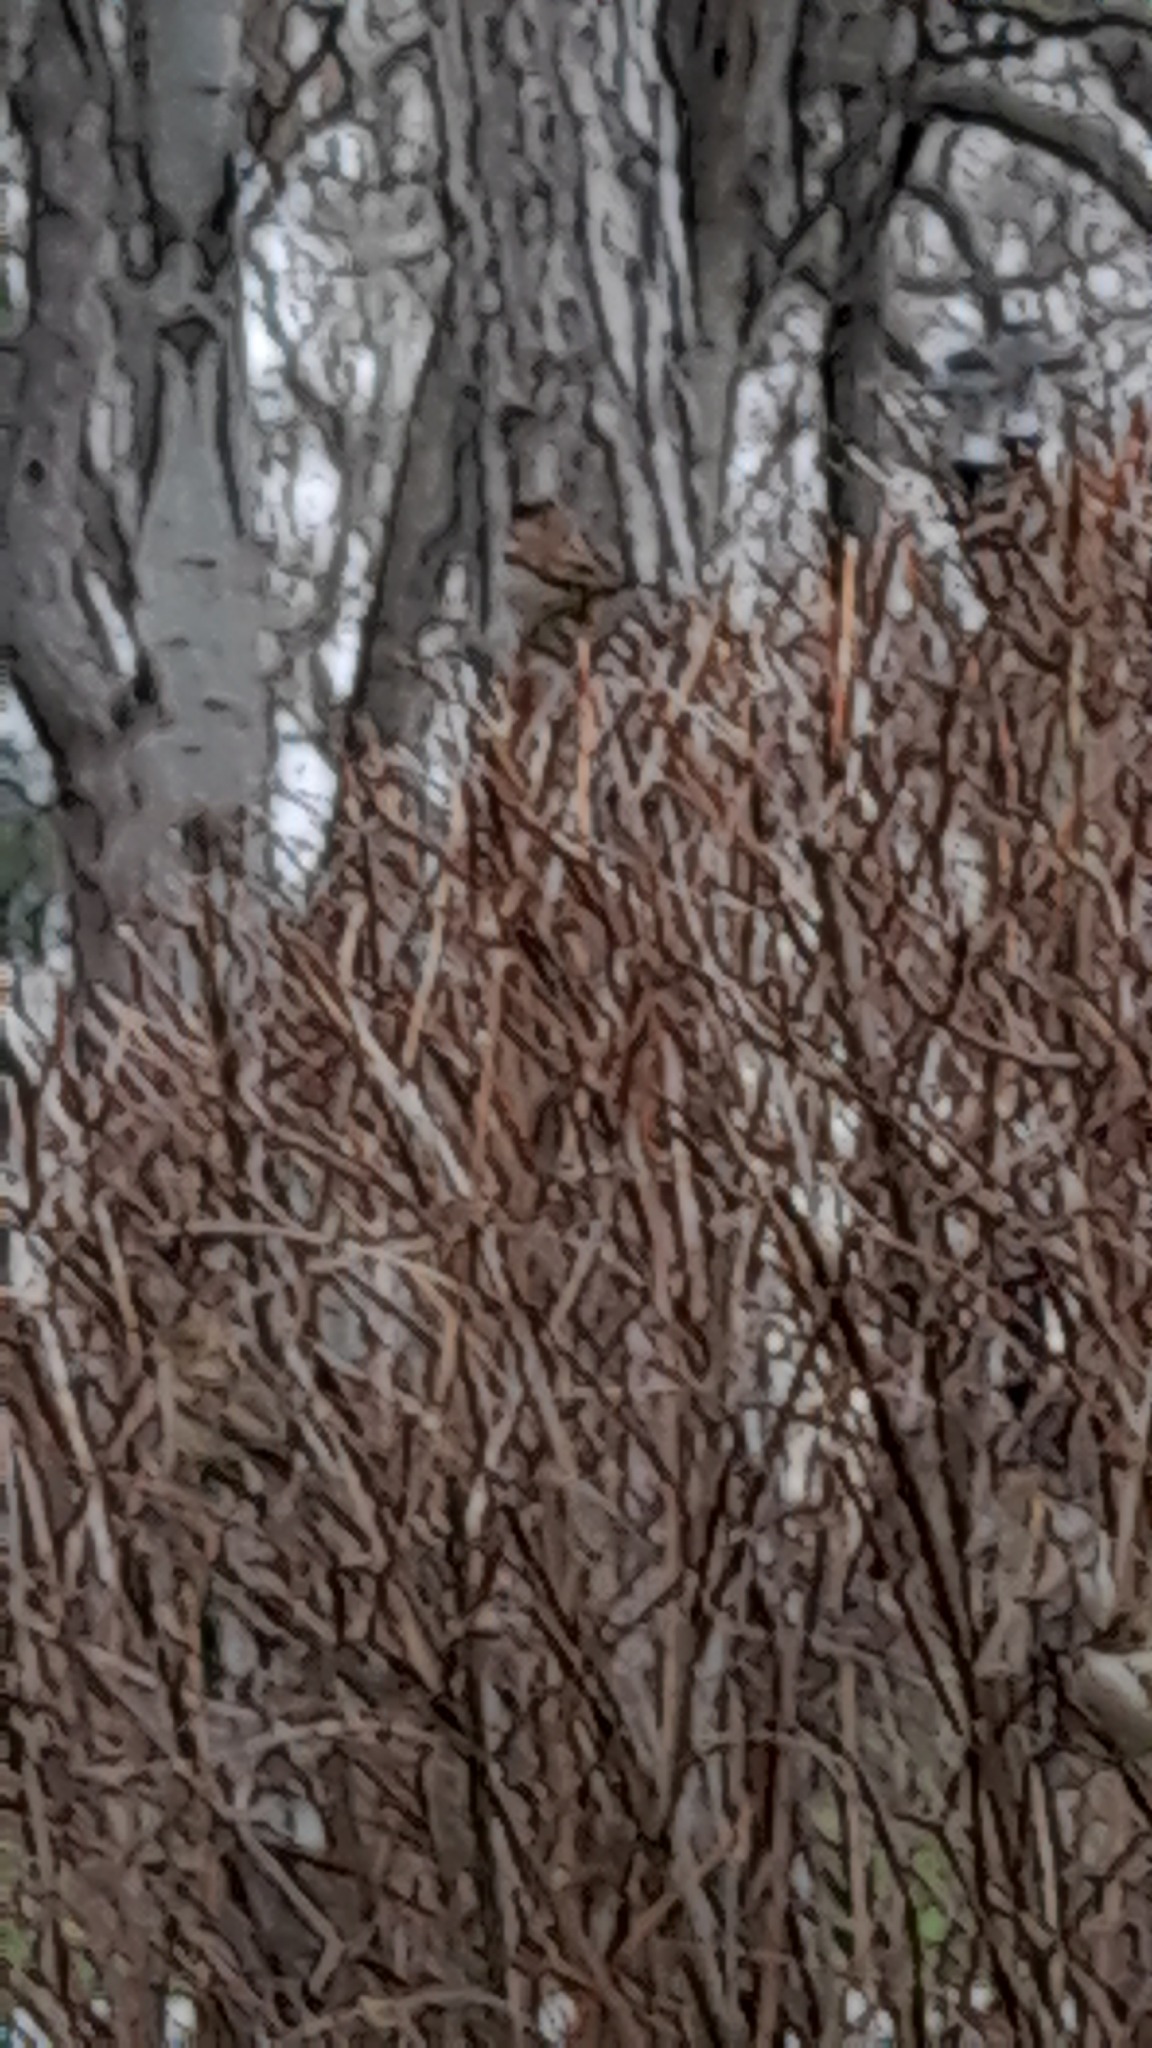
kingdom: Animalia
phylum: Chordata
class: Aves
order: Passeriformes
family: Passeridae
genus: Passer
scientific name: Passer domesticus
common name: House sparrow
